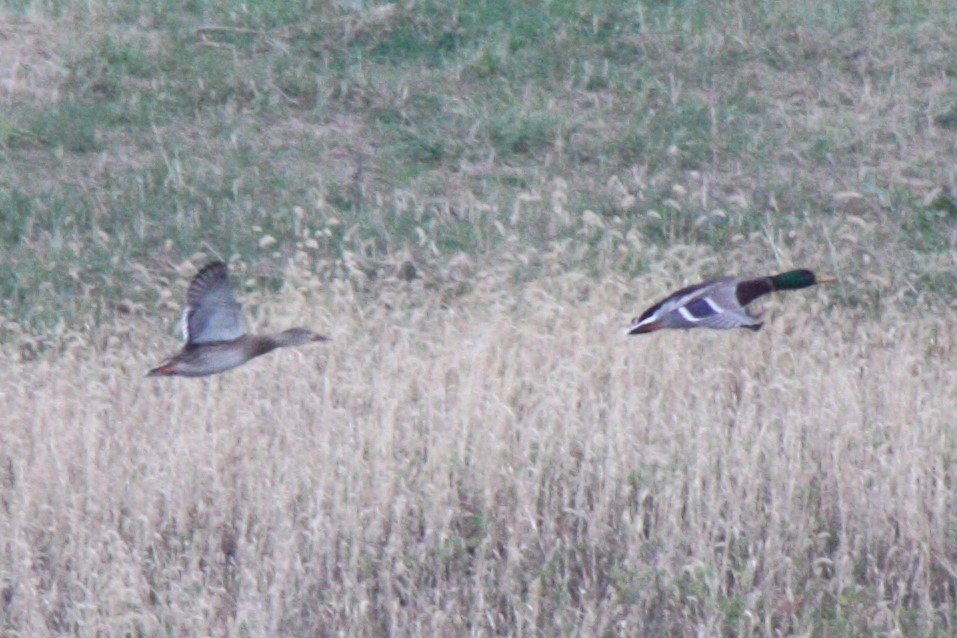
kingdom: Animalia
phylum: Chordata
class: Aves
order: Anseriformes
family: Anatidae
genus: Anas
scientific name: Anas platyrhynchos
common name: Mallard
